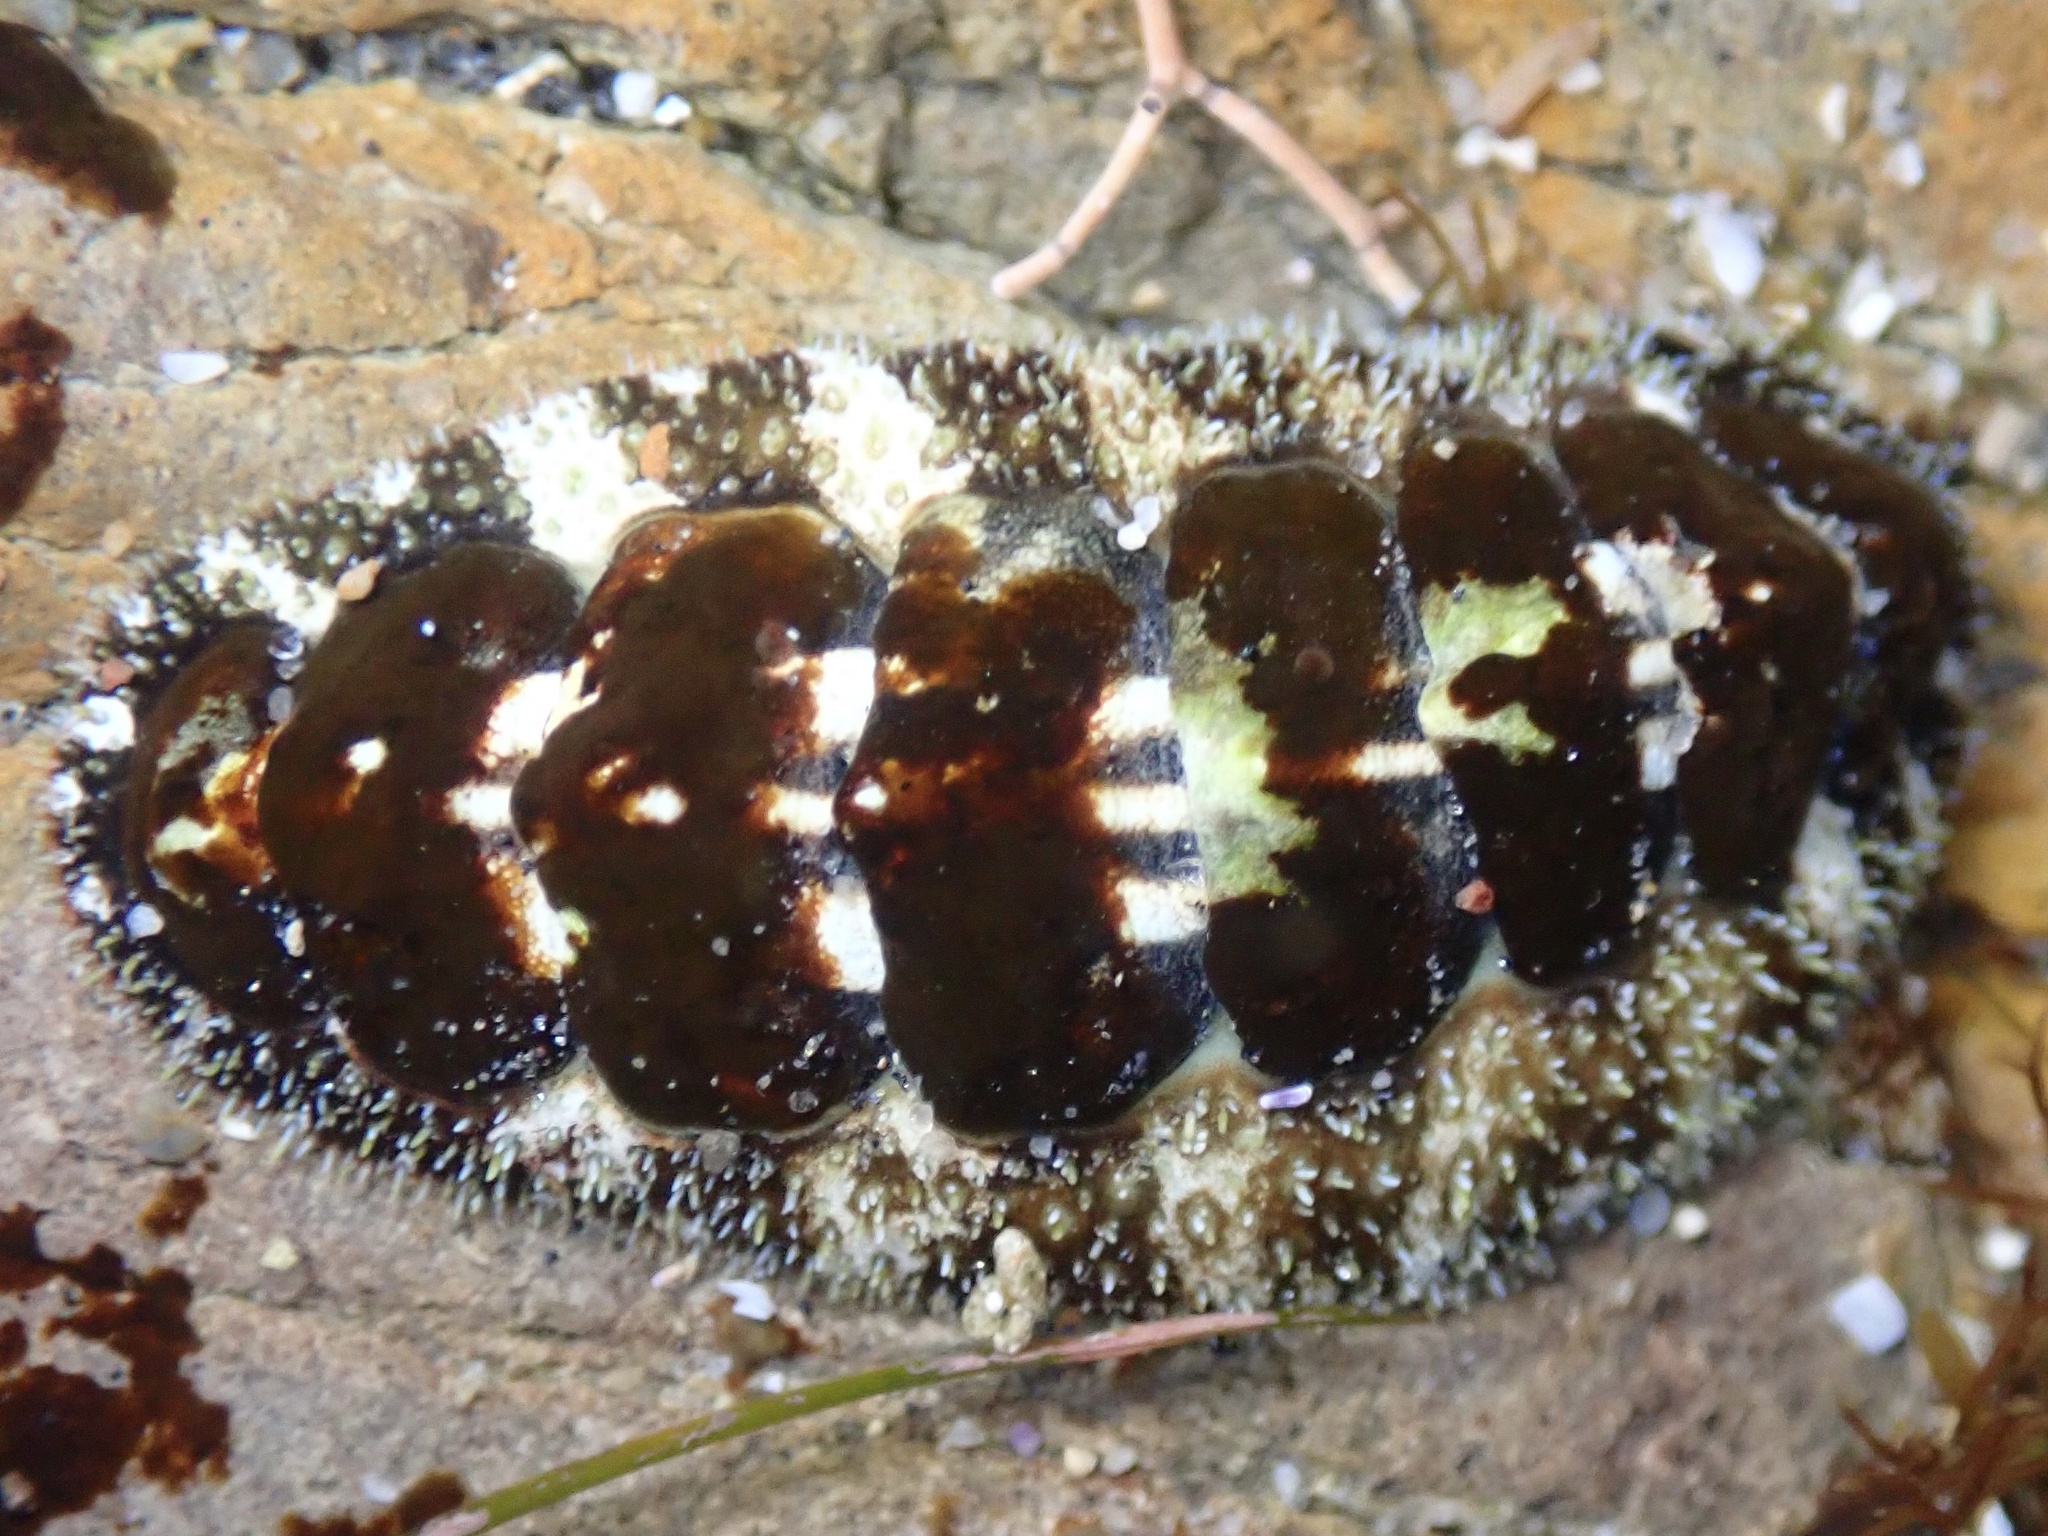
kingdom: Animalia
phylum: Mollusca
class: Polyplacophora
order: Chitonida
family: Tonicellidae
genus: Nuttallina
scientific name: Nuttallina californica
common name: California nuttall chiton
